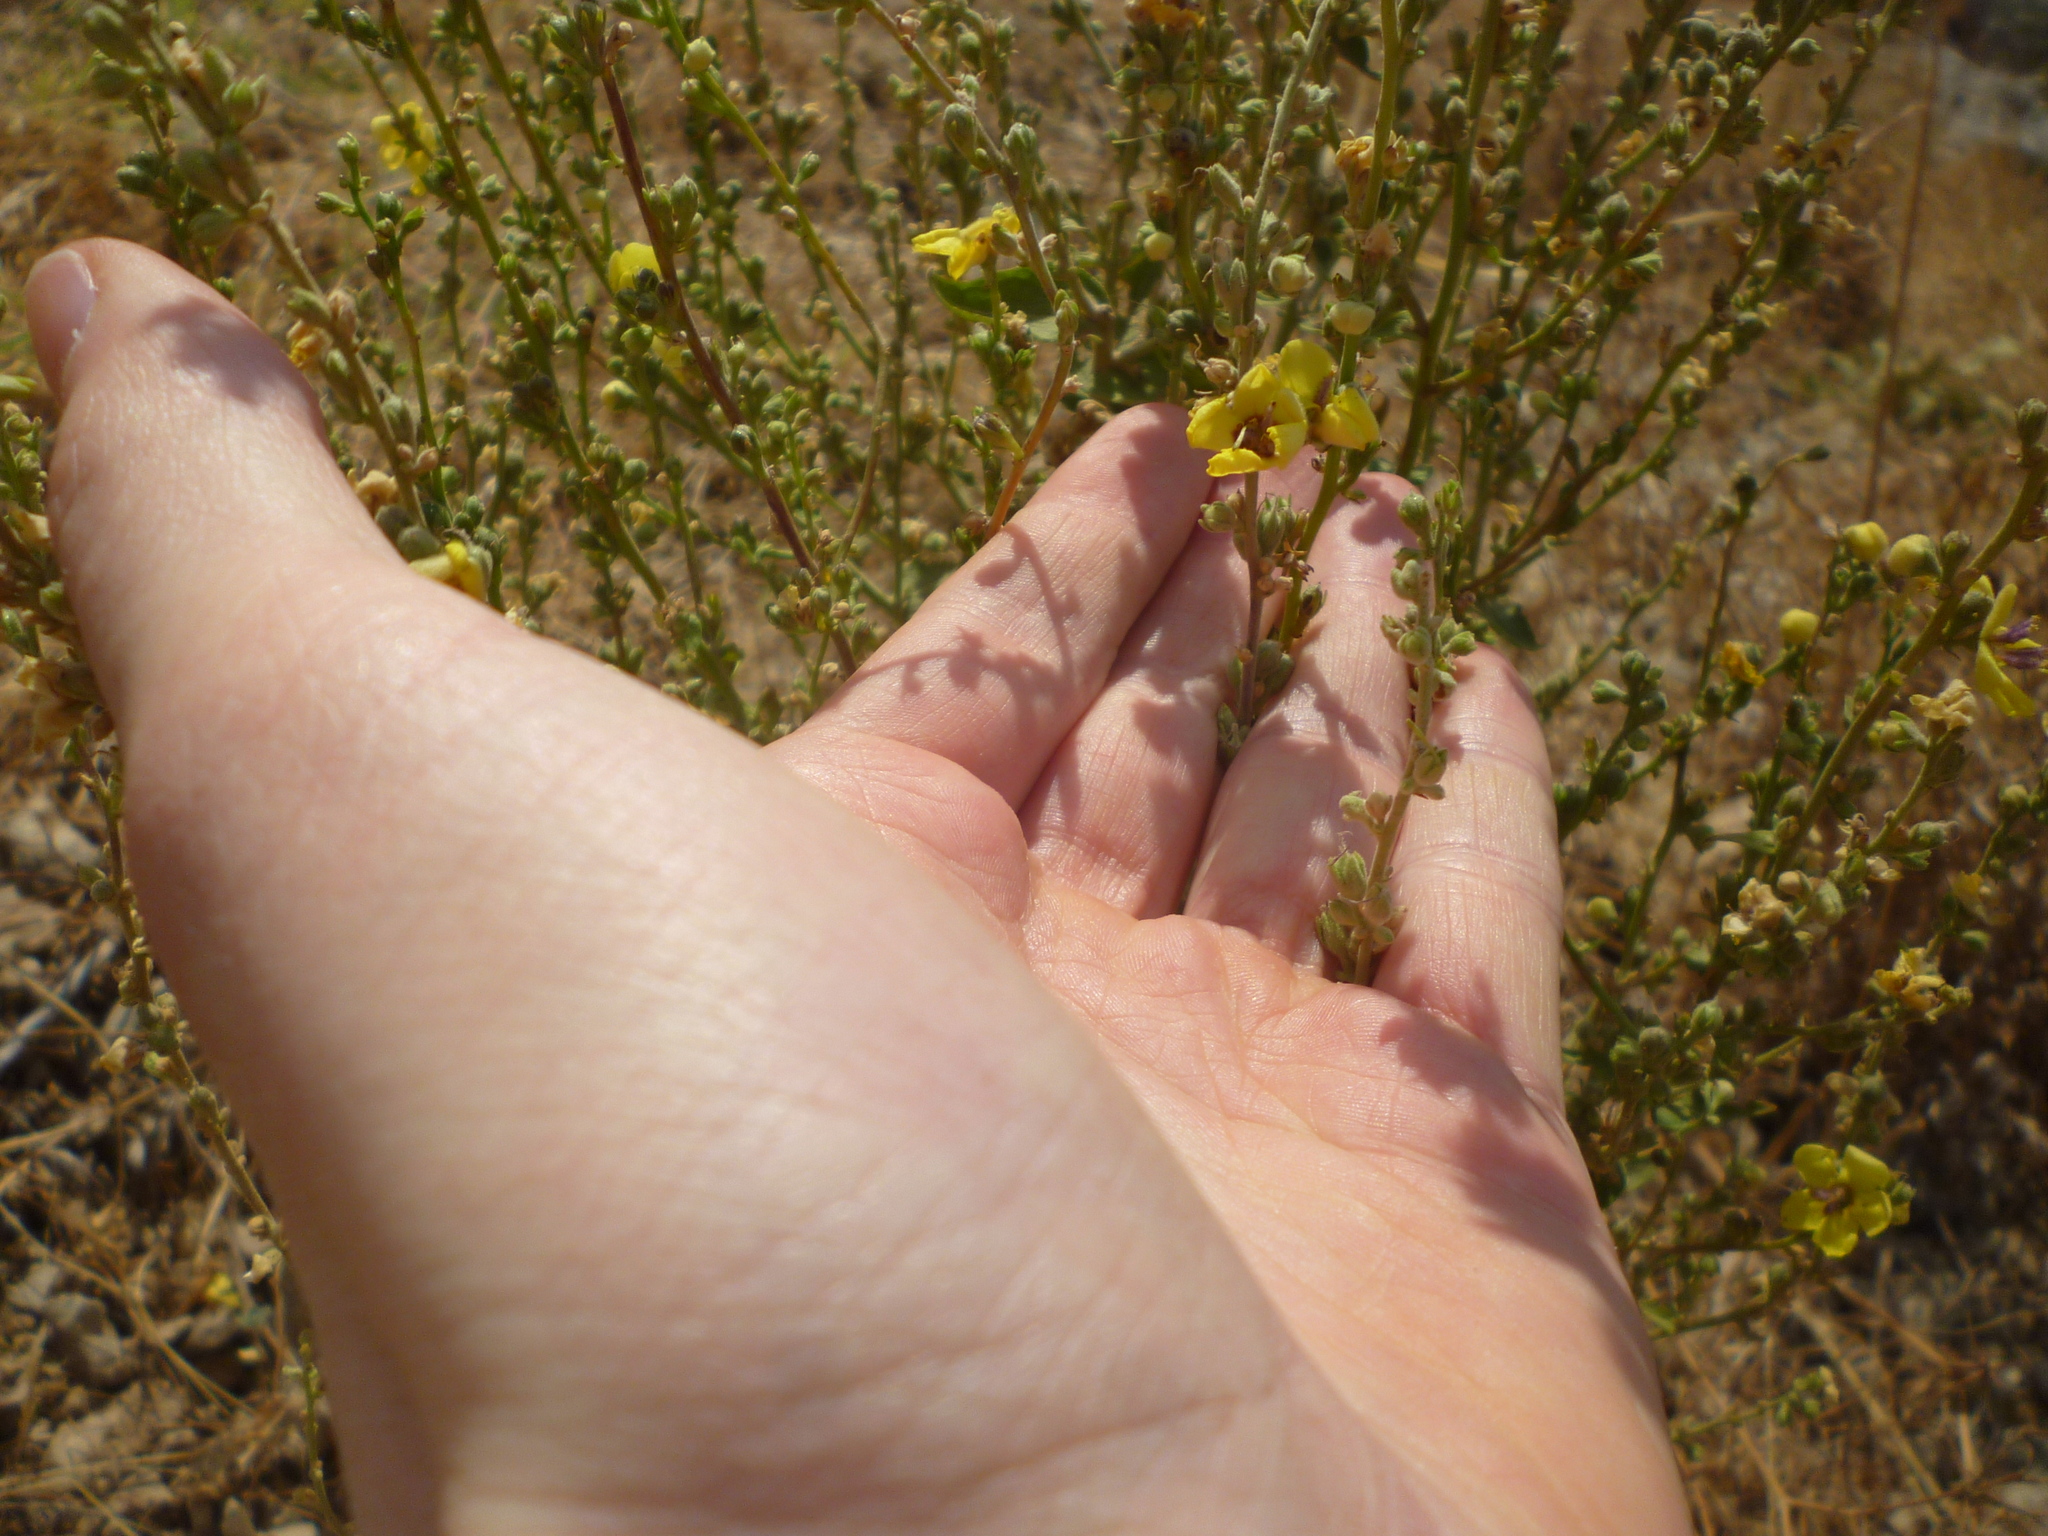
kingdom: Plantae
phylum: Tracheophyta
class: Magnoliopsida
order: Lamiales
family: Scrophulariaceae
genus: Verbascum
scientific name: Verbascum sinuatum
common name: Wavyleaf mullein
